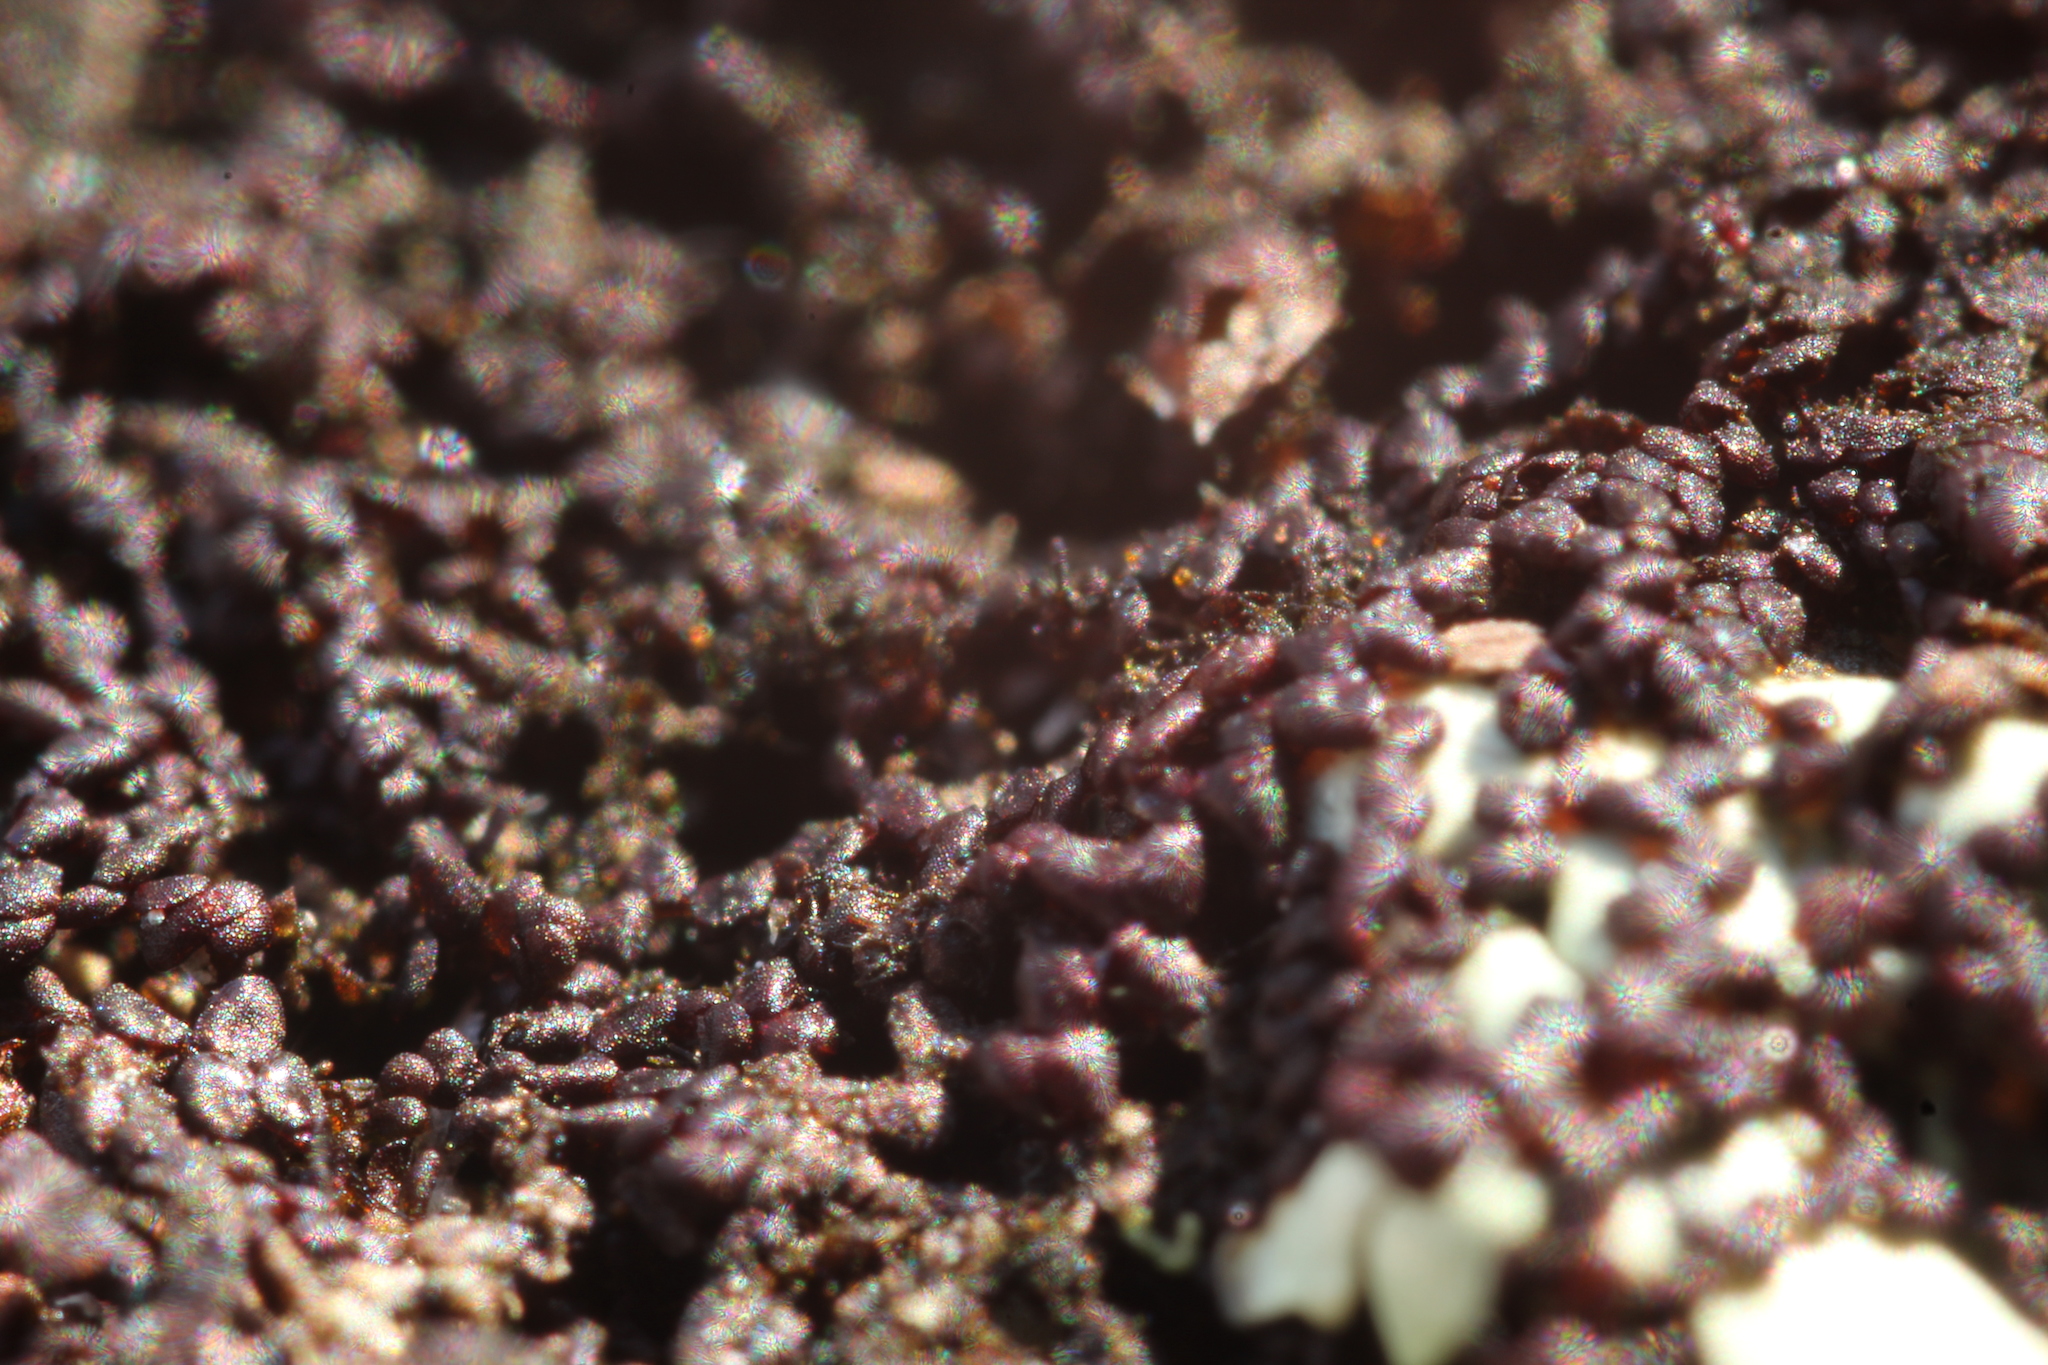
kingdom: Plantae
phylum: Marchantiophyta
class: Jungermanniopsida
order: Porellales
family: Frullaniaceae
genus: Frullania
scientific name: Frullania pentapleura
